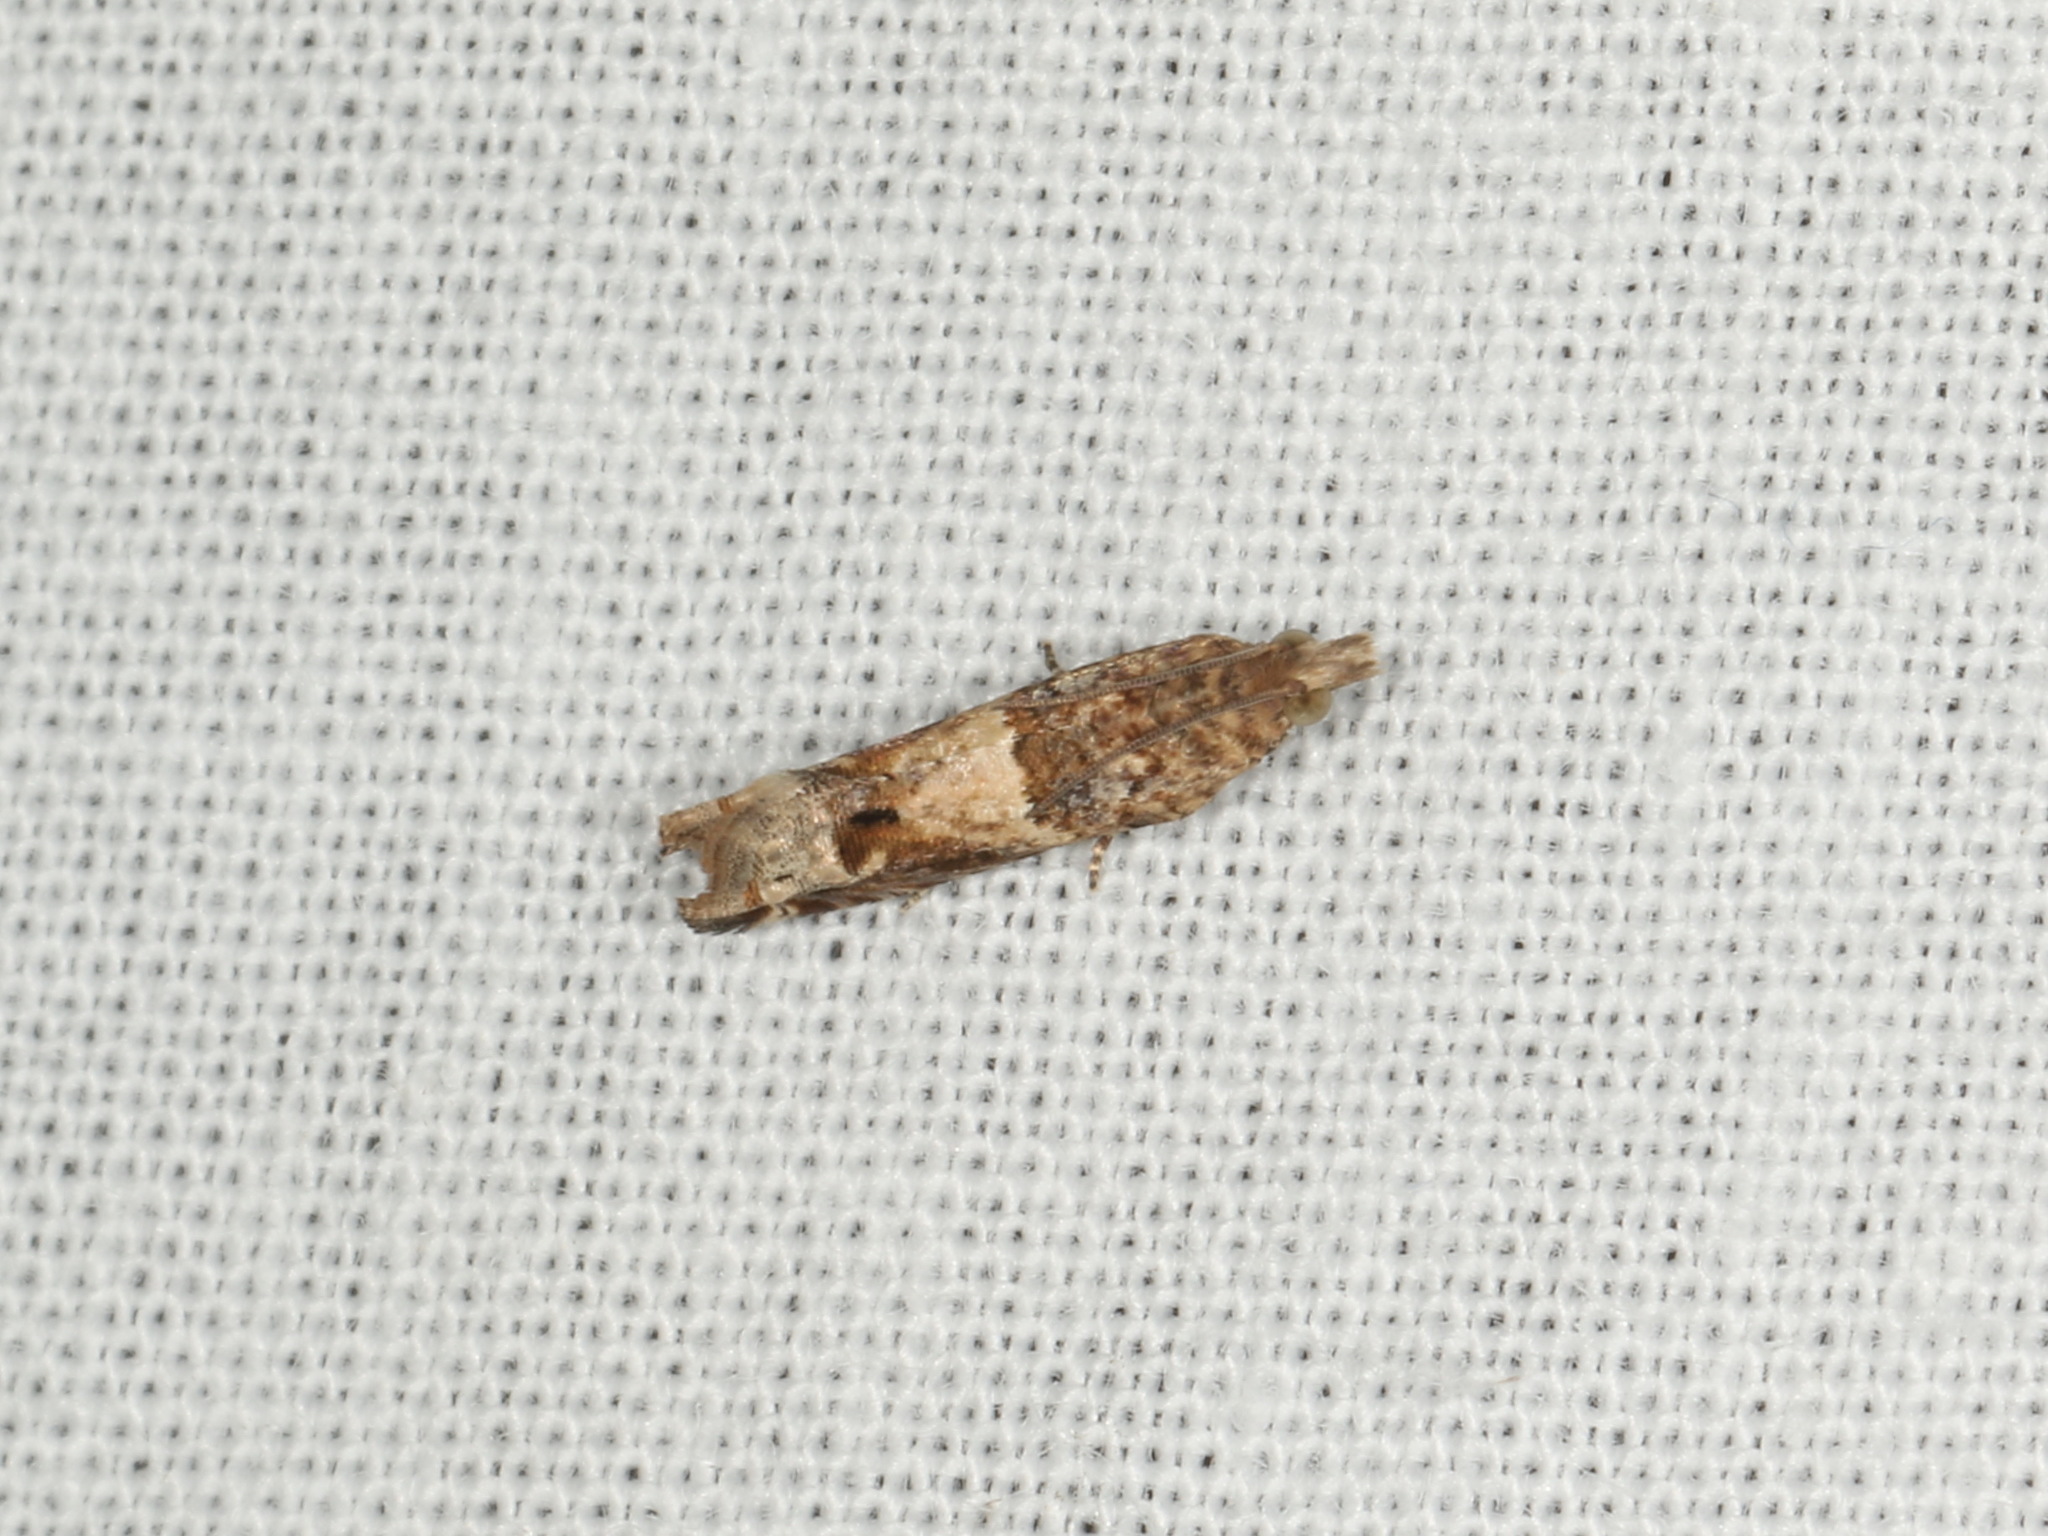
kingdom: Animalia
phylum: Arthropoda
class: Insecta
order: Lepidoptera
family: Tortricidae
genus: Crocidosema
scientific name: Crocidosema plebejana
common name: Southern bell
